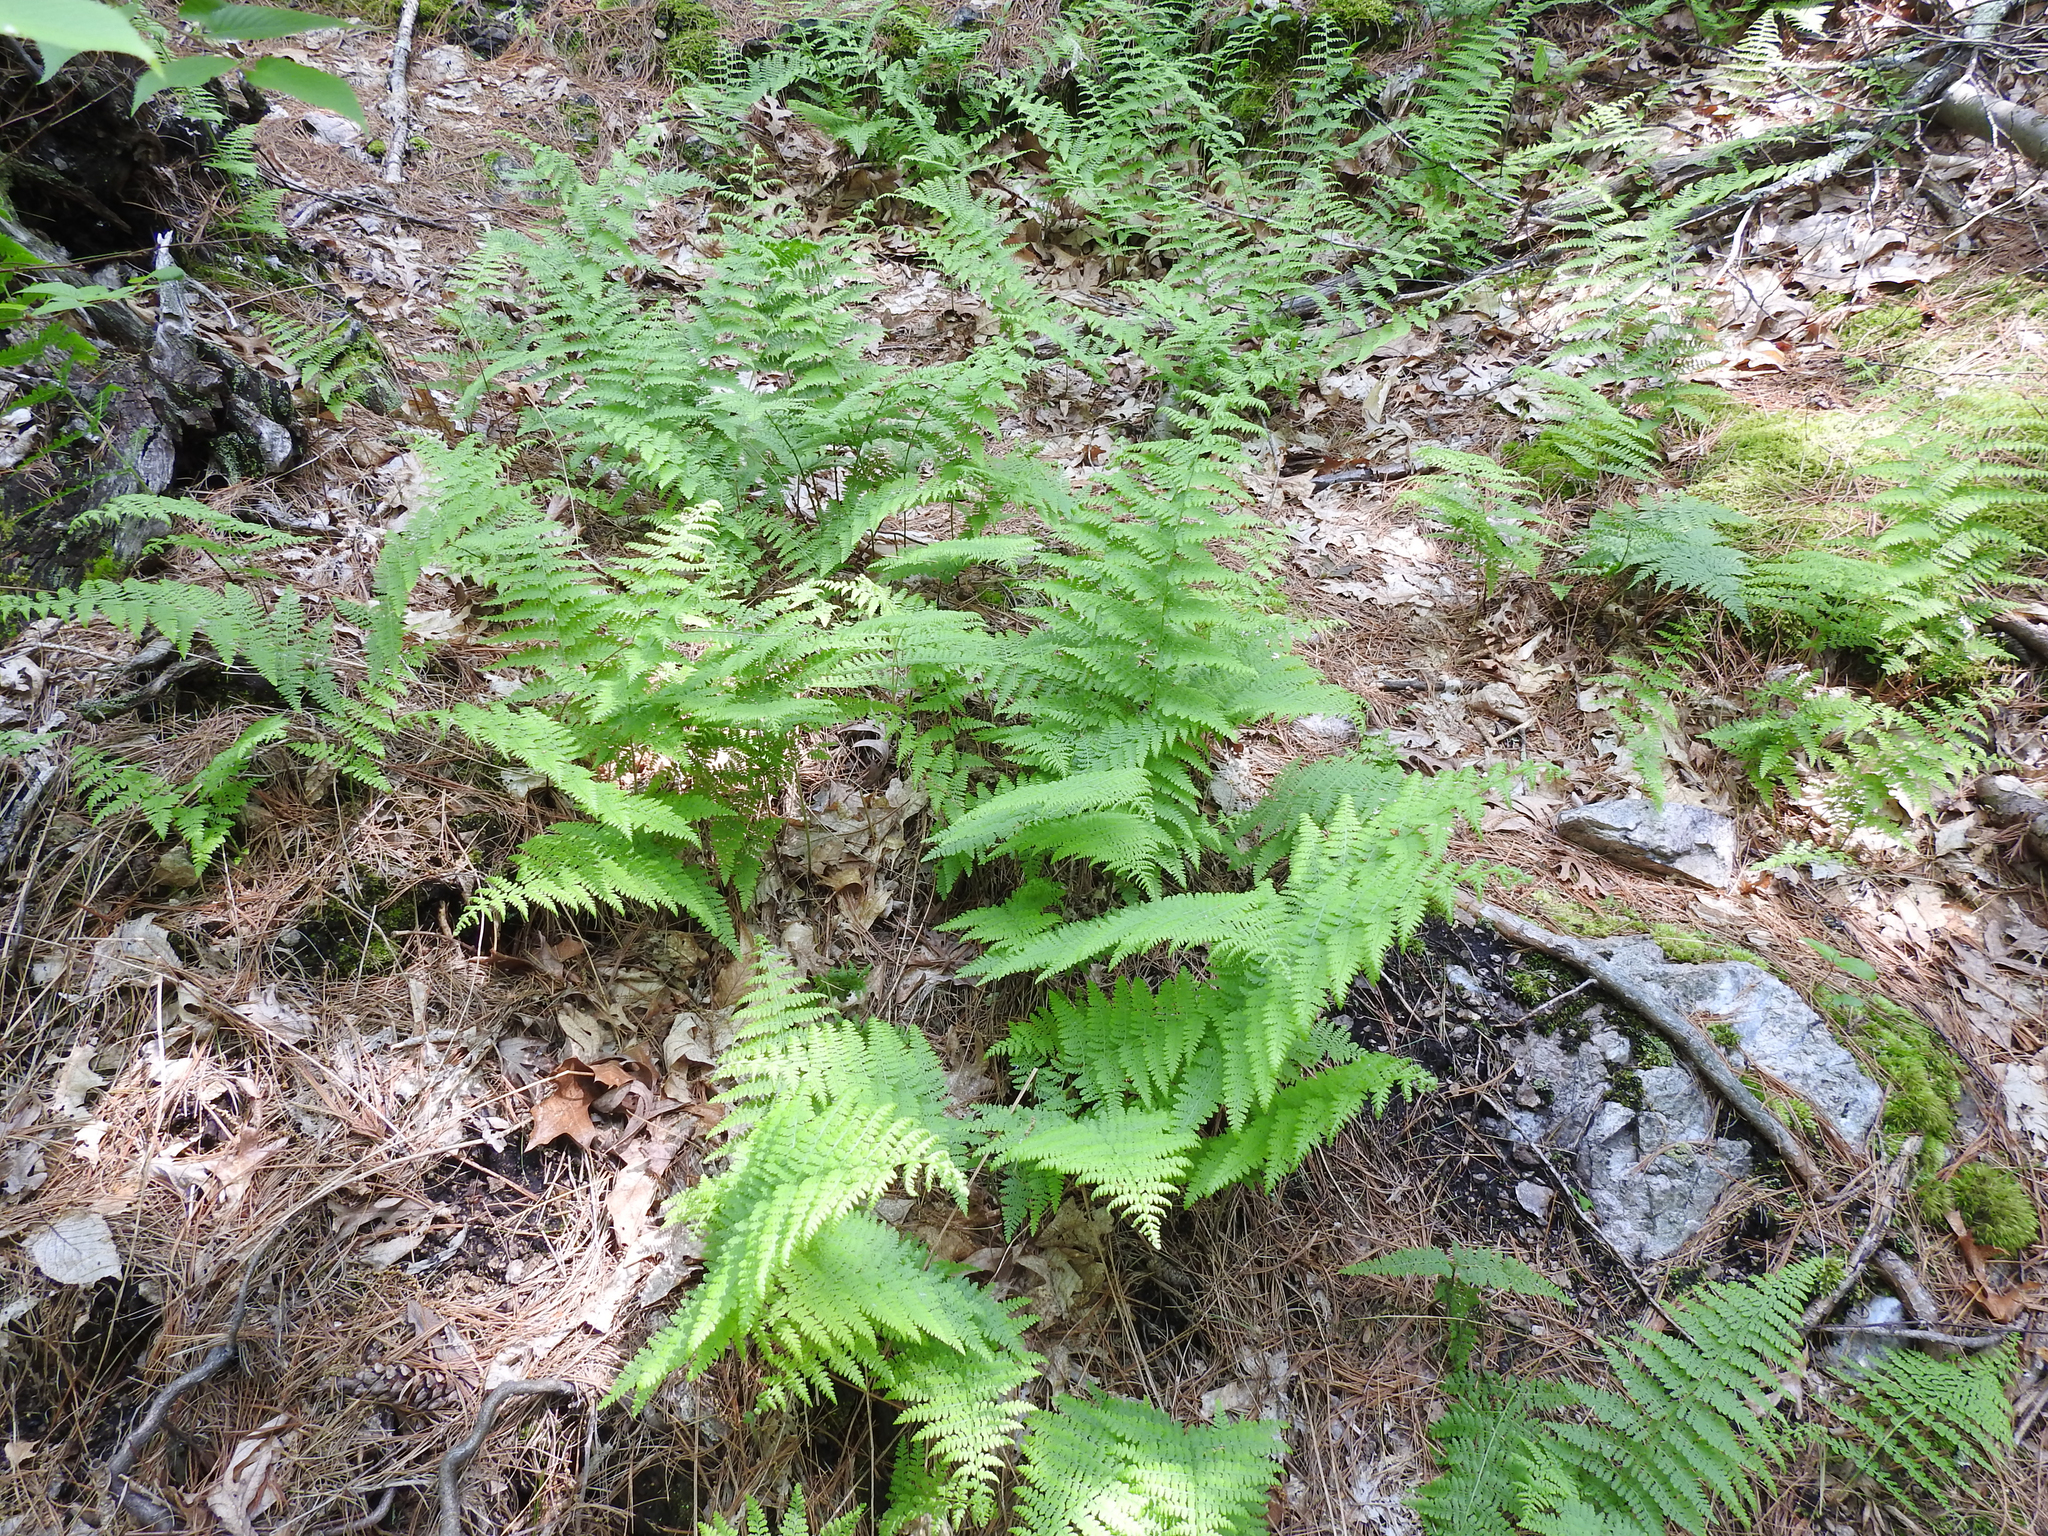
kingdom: Plantae
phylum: Tracheophyta
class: Polypodiopsida
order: Polypodiales
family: Dennstaedtiaceae
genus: Sitobolium
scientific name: Sitobolium punctilobum
